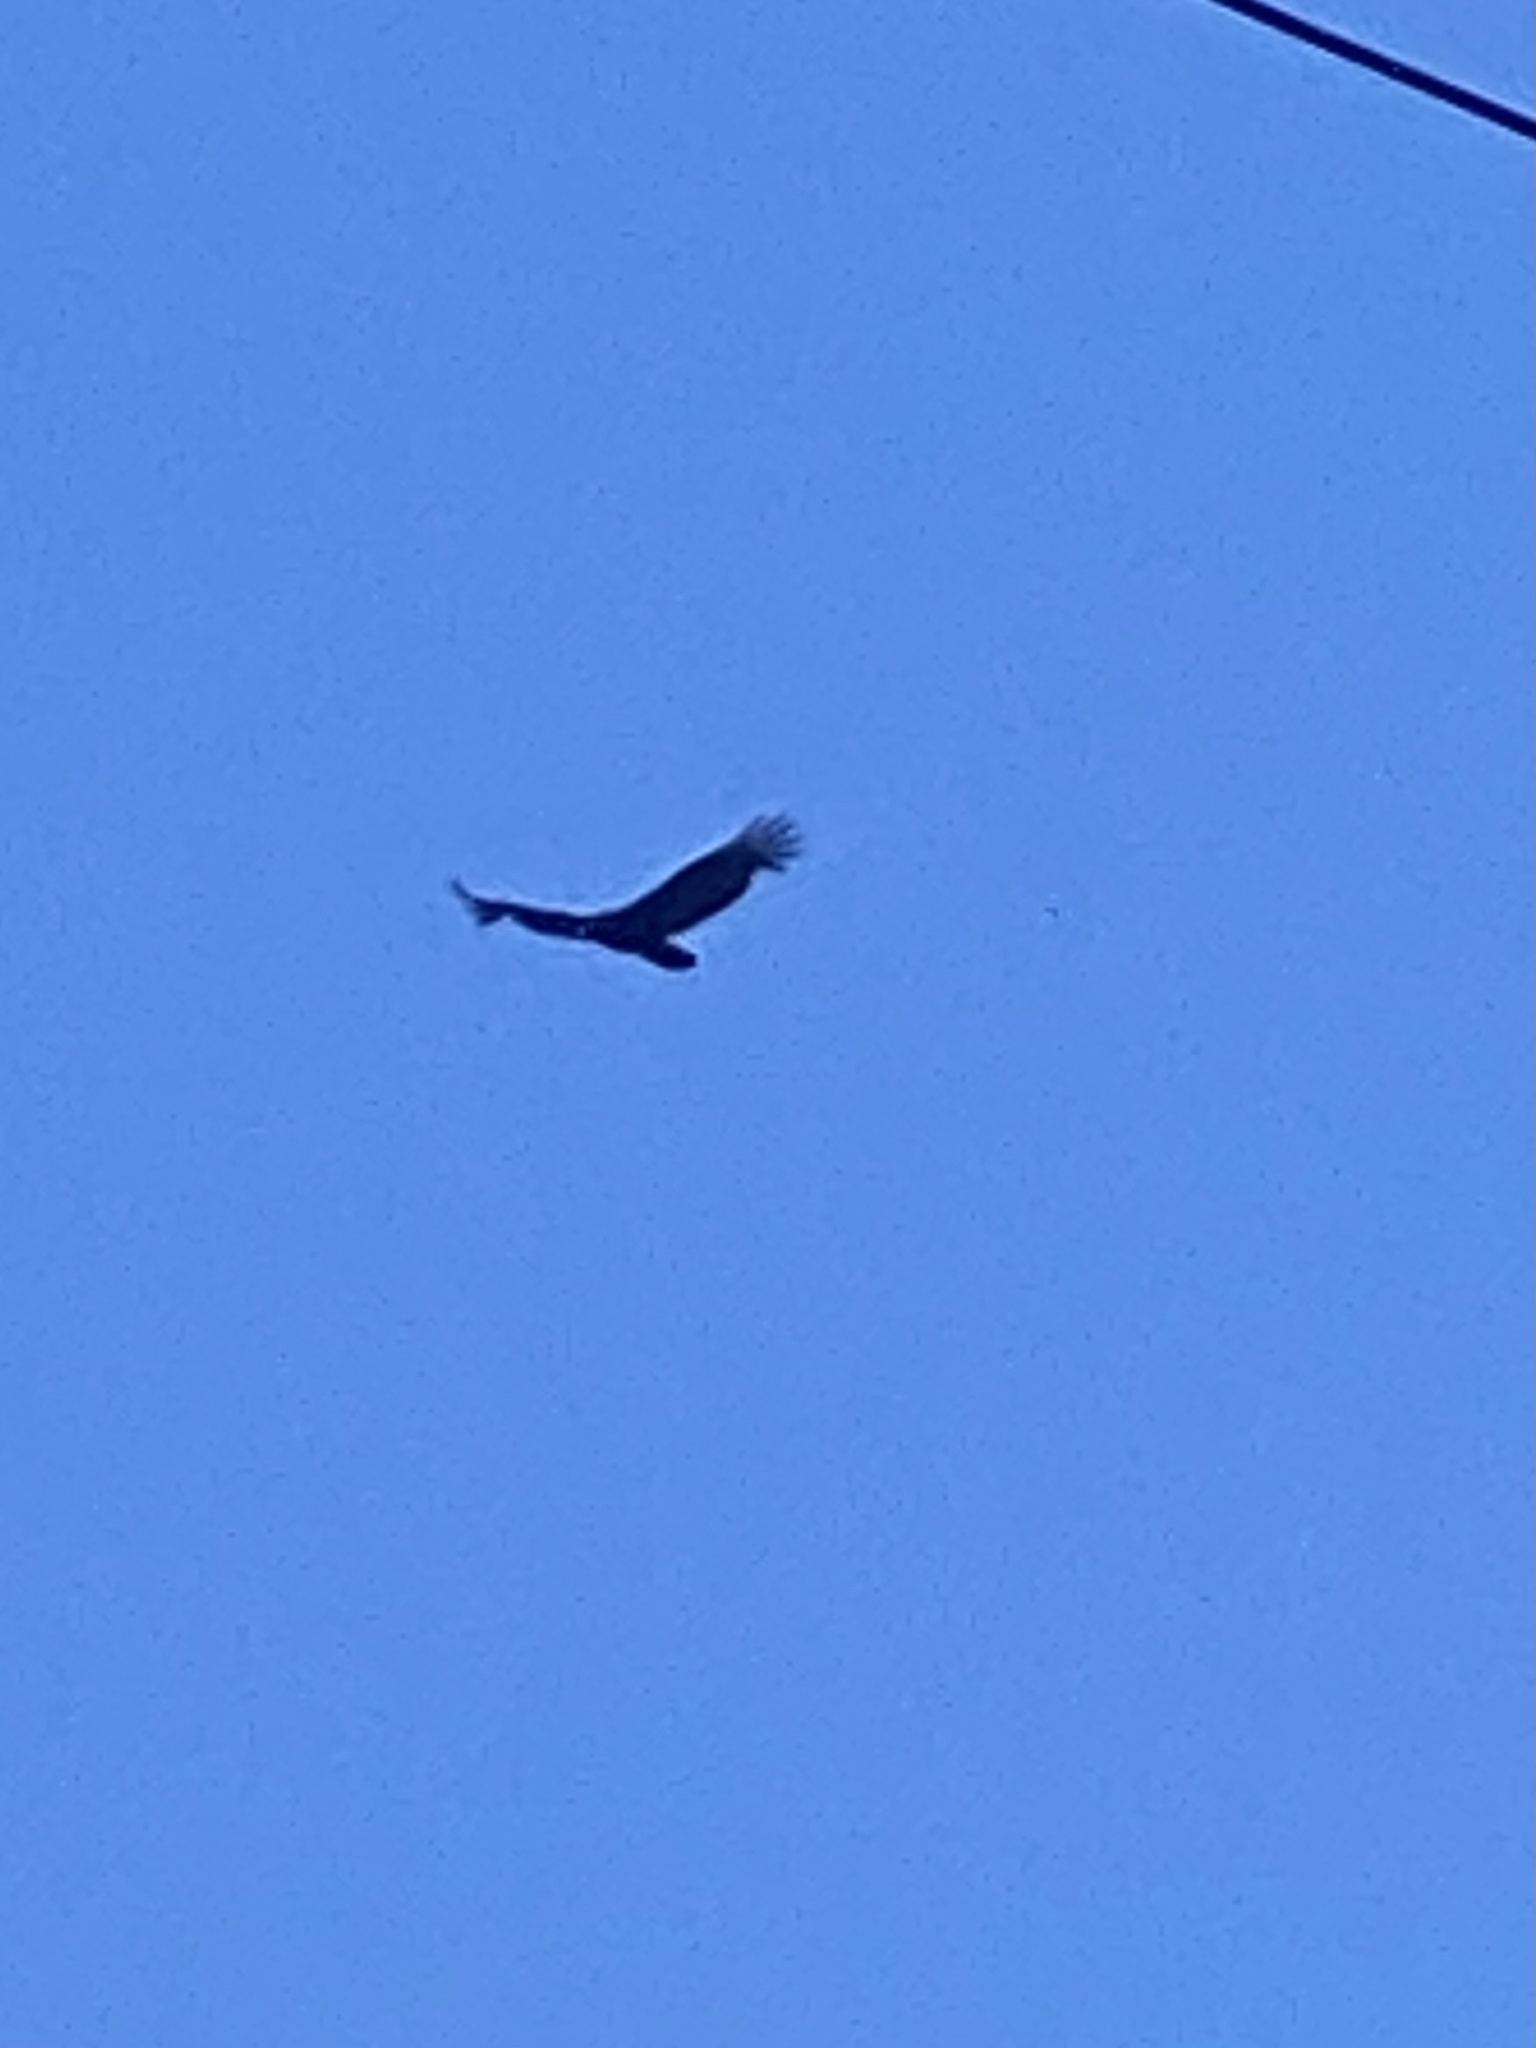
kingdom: Animalia
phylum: Chordata
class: Aves
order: Accipitriformes
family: Cathartidae
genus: Cathartes
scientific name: Cathartes aura
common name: Turkey vulture
